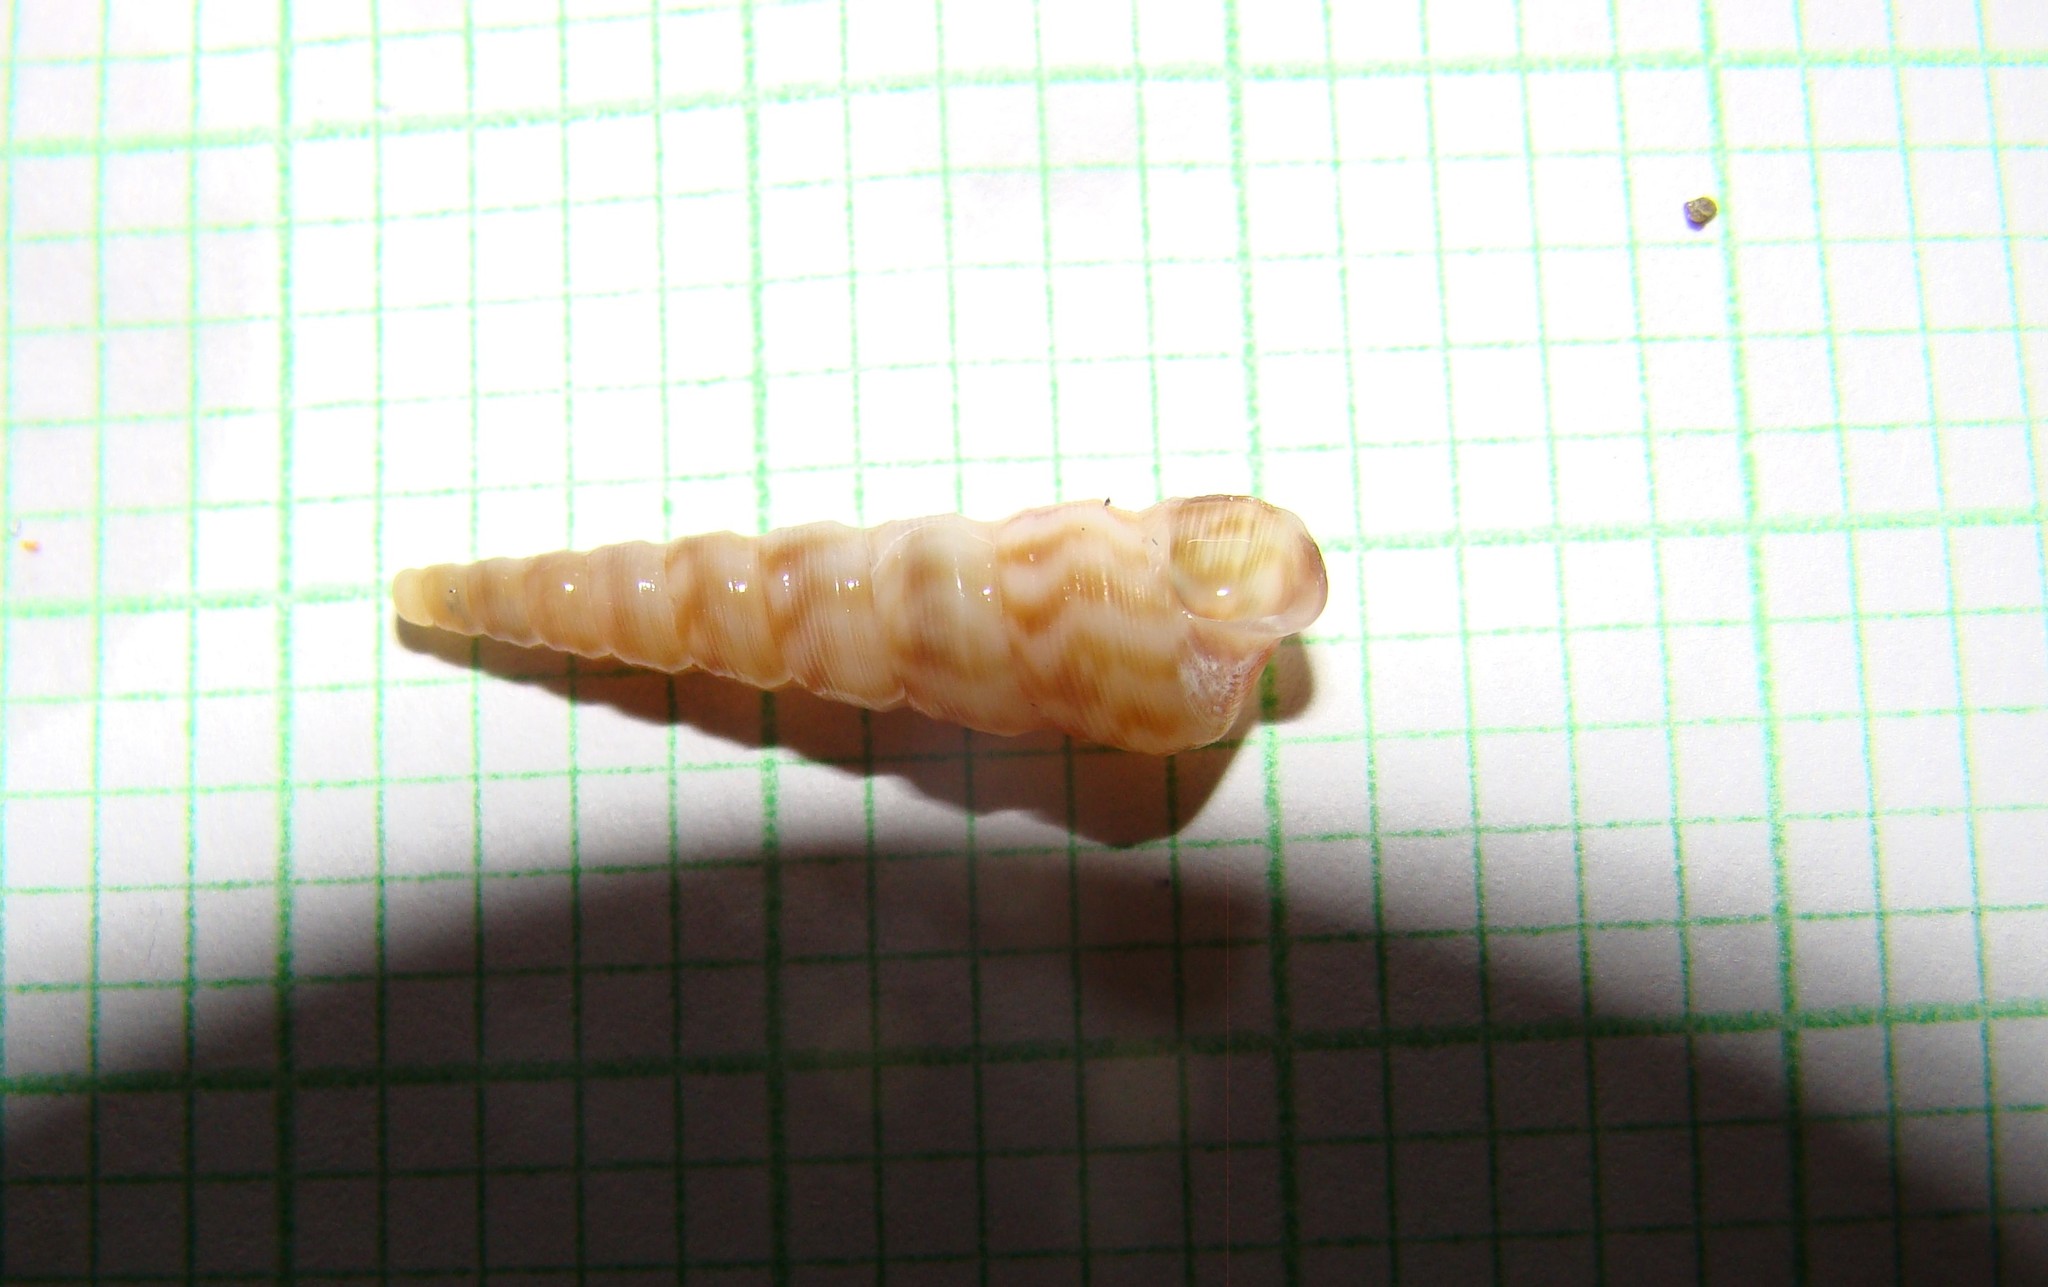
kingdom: Animalia
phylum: Mollusca
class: Gastropoda
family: Turritellidae
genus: Stiracolpus
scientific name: Stiracolpus pagoda
